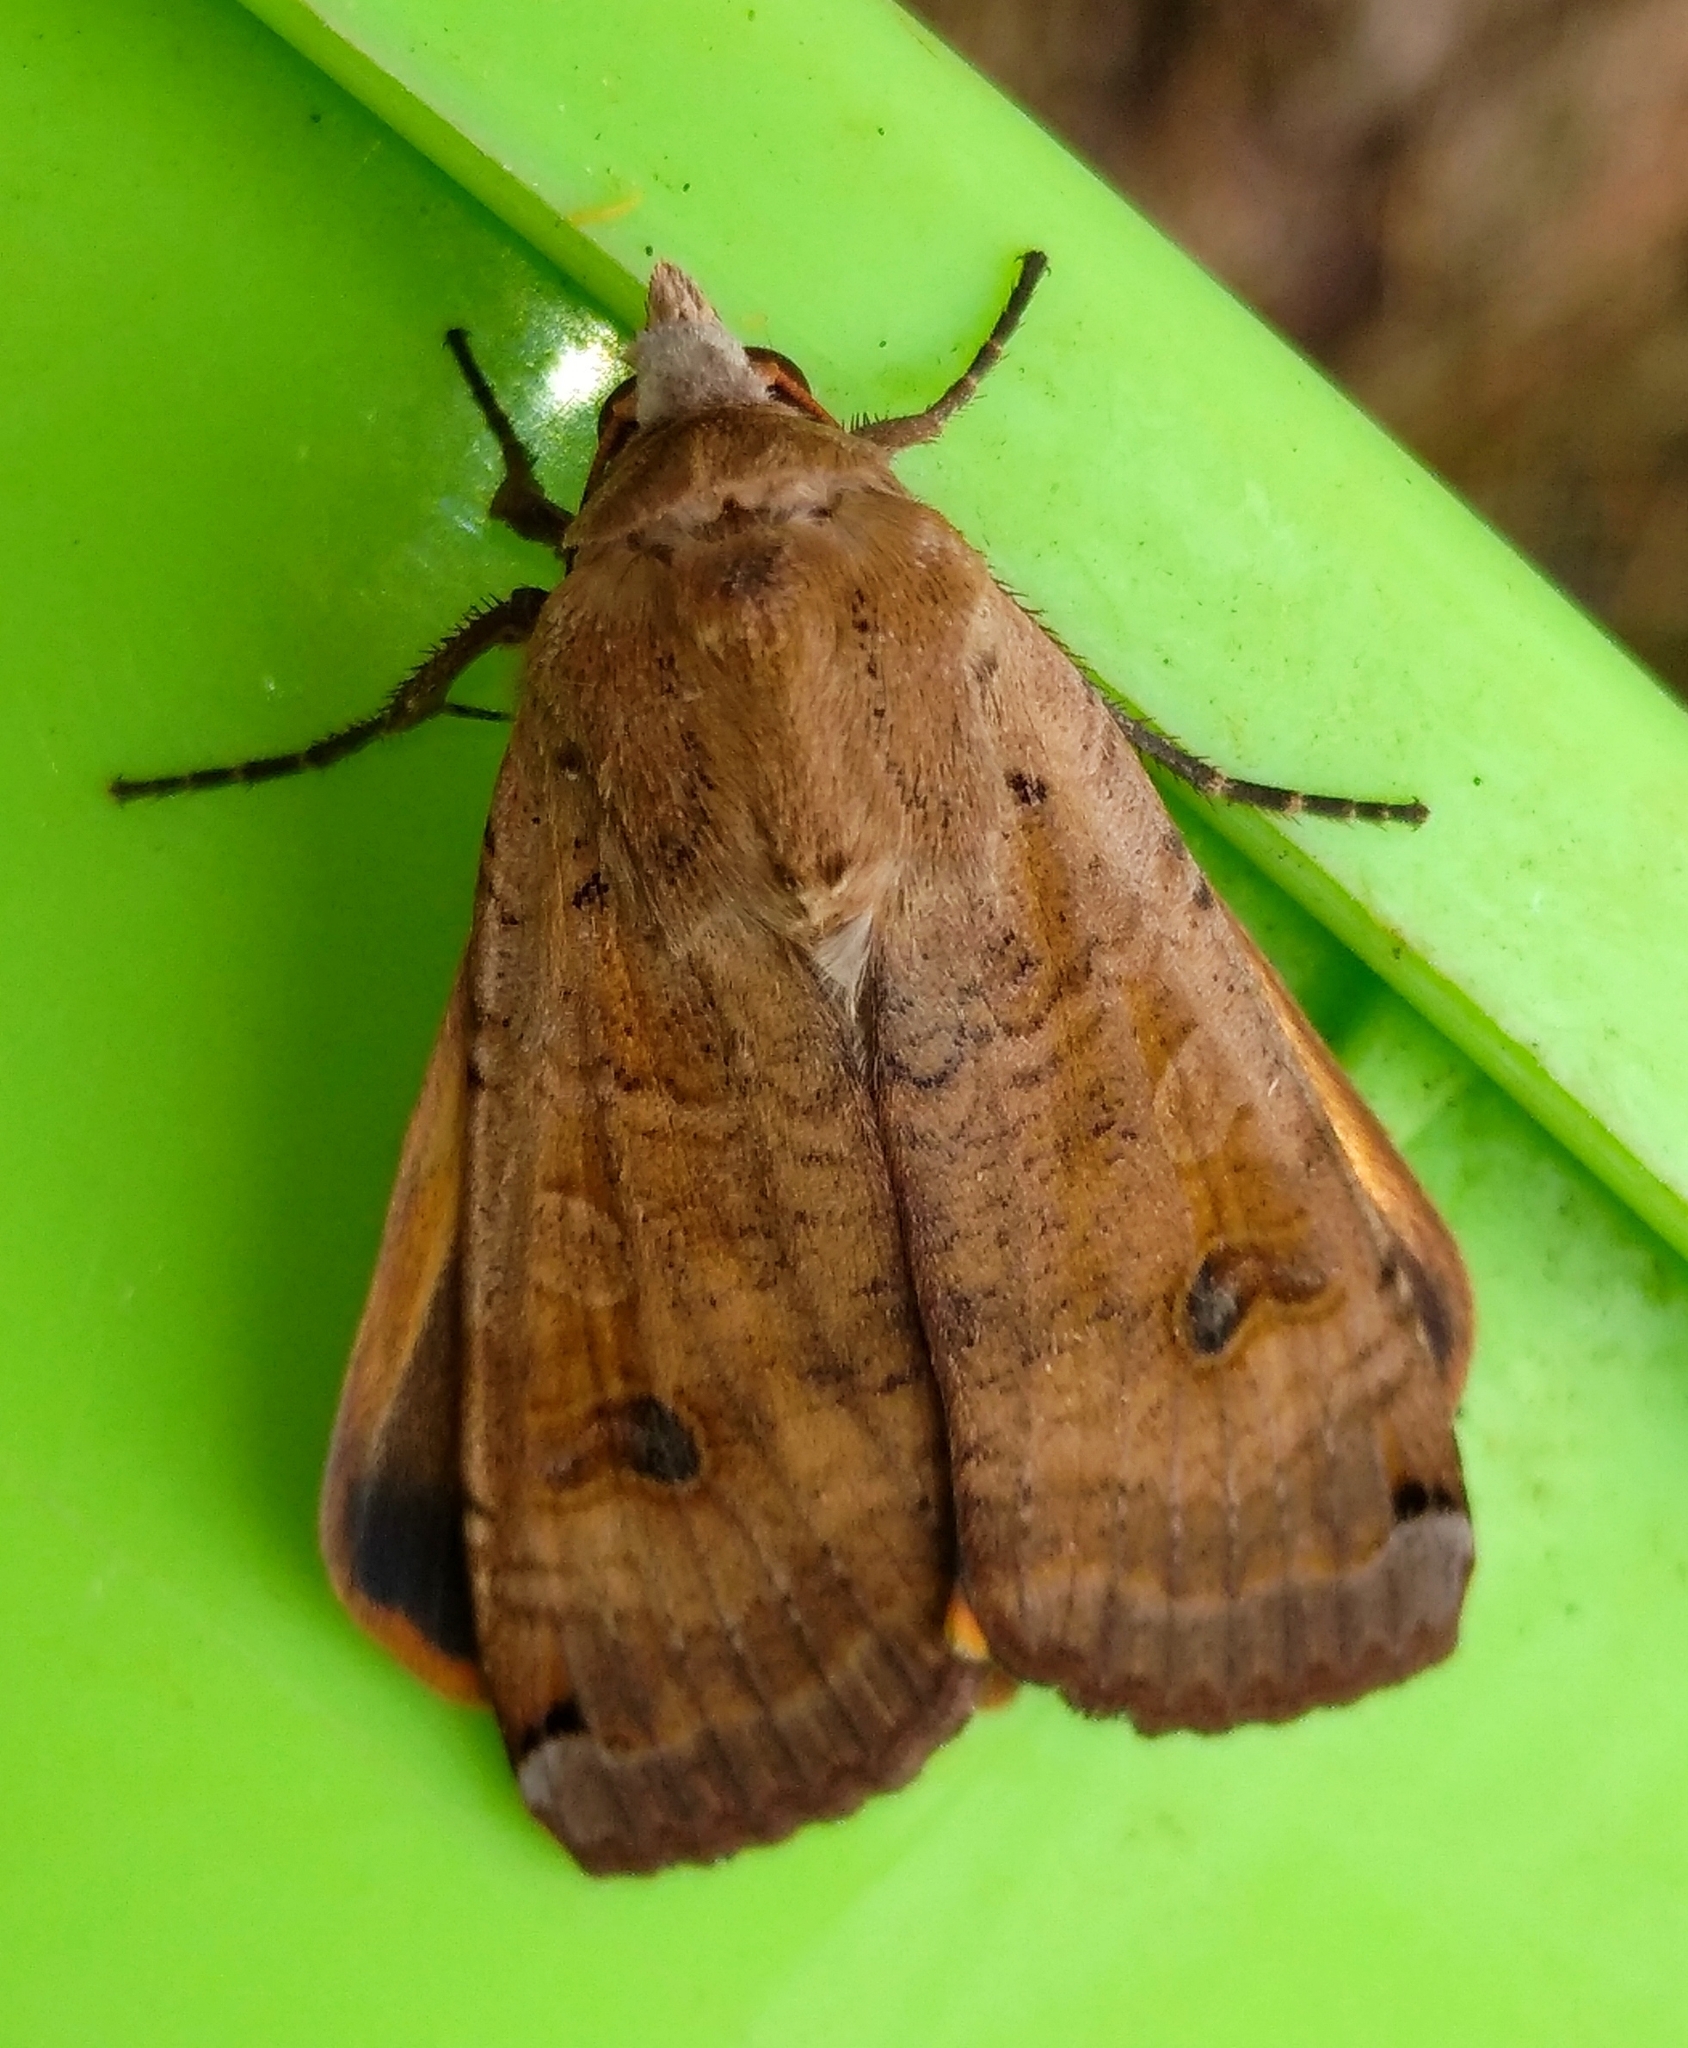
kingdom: Animalia
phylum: Arthropoda
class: Insecta
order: Lepidoptera
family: Noctuidae
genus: Noctua
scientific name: Noctua pronuba
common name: Large yellow underwing
